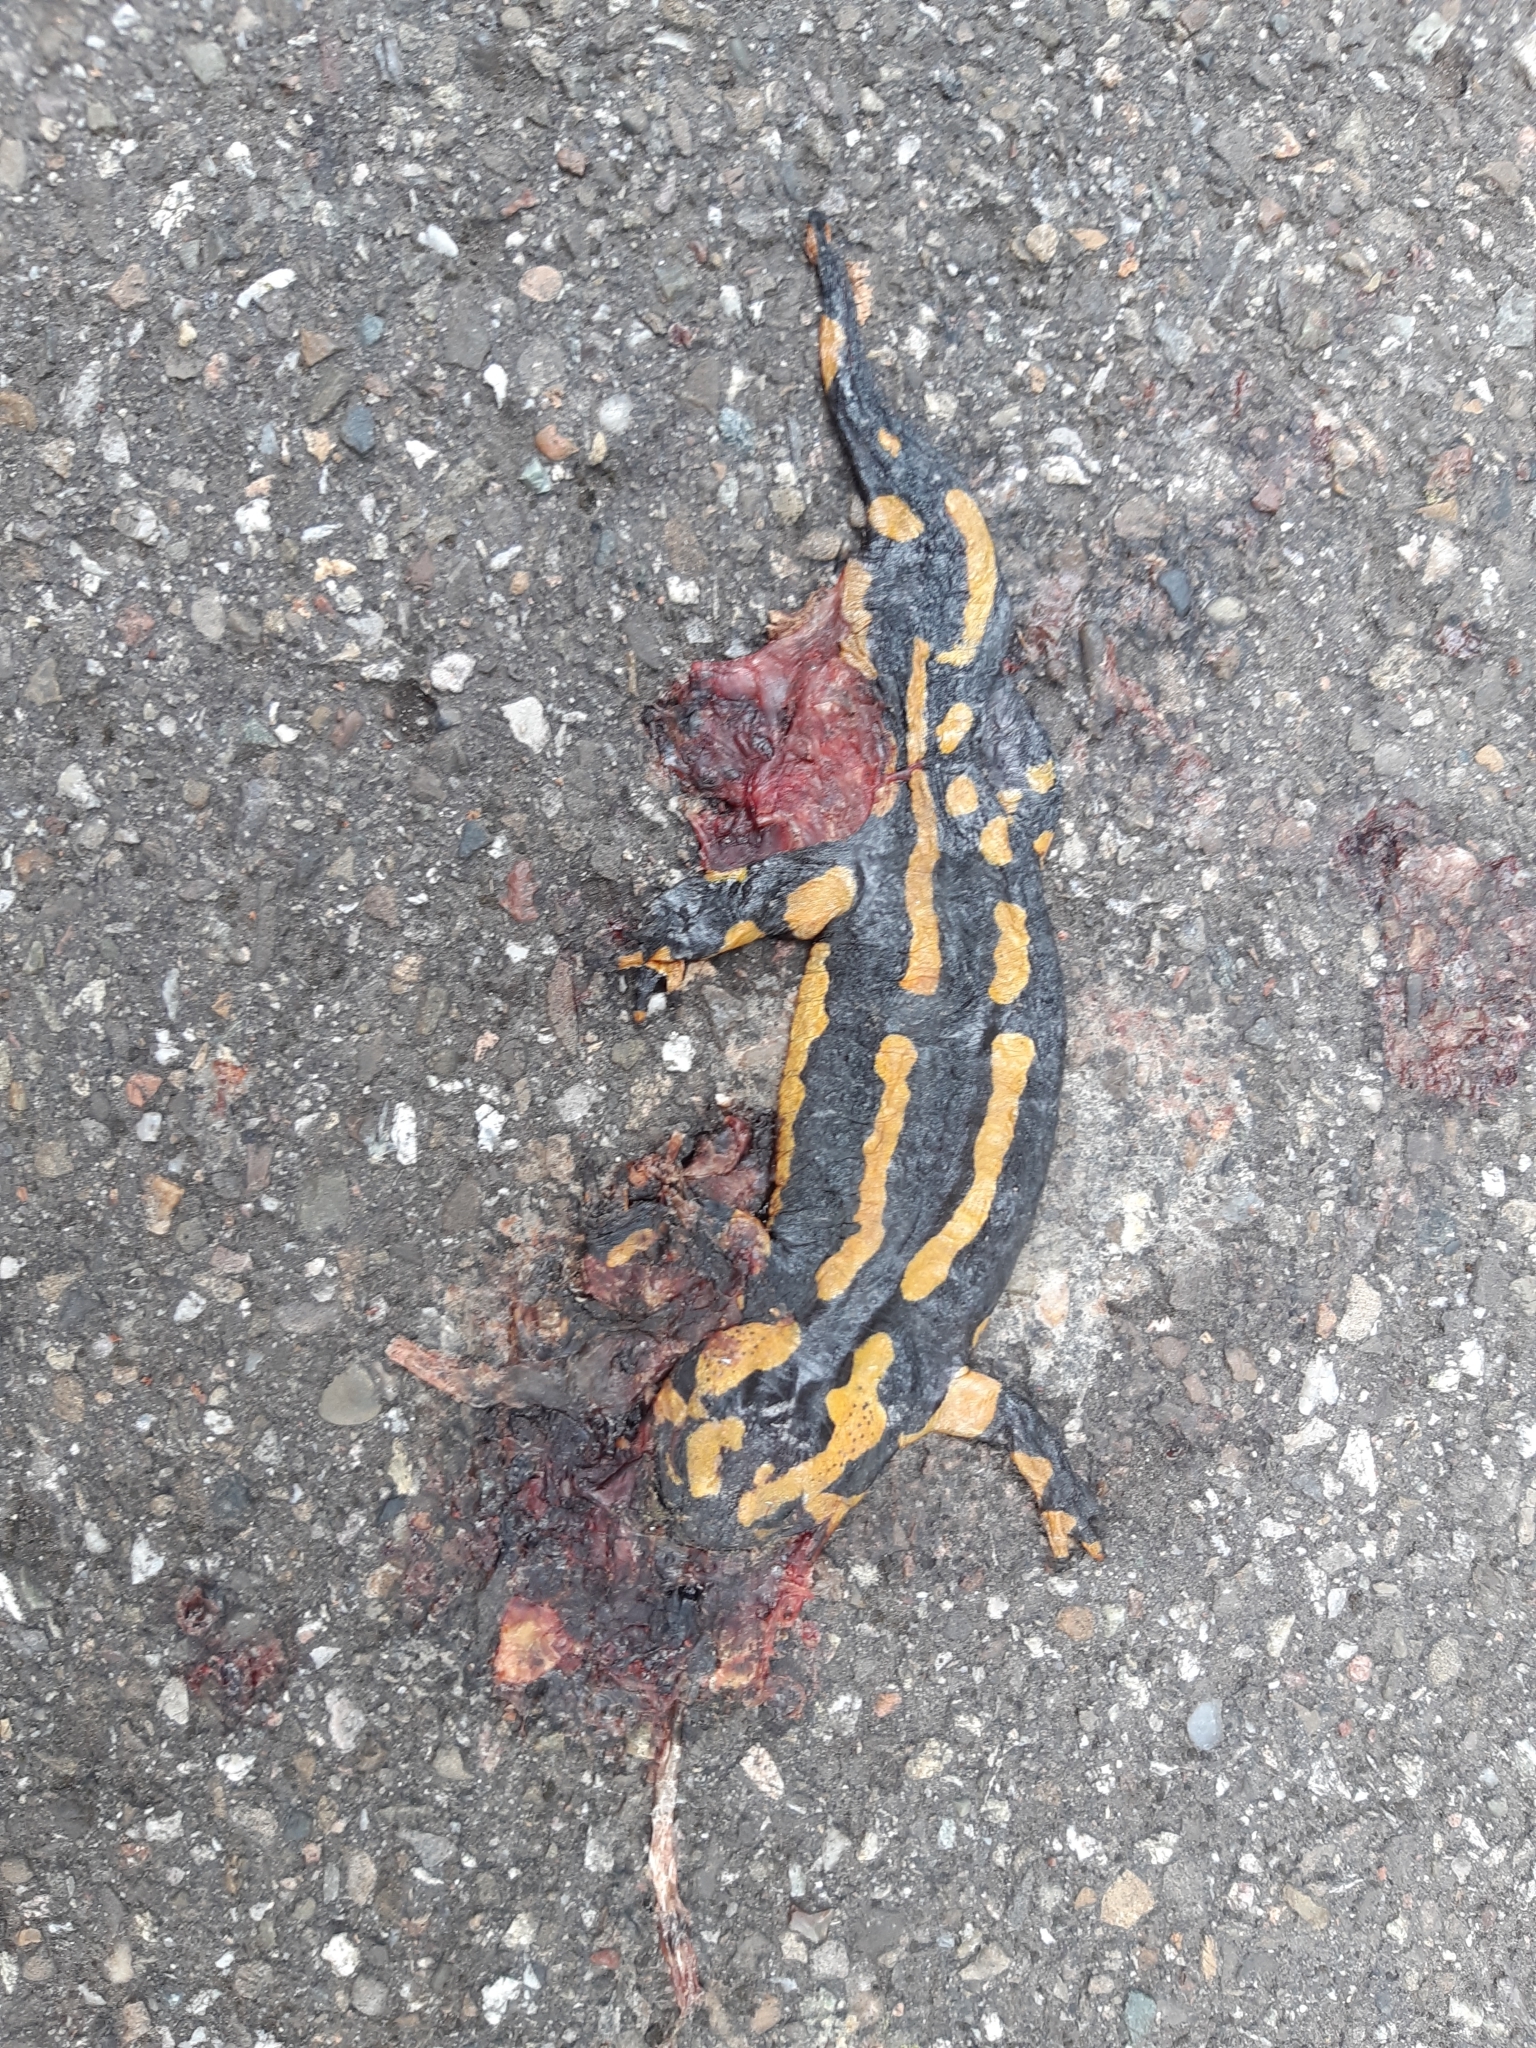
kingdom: Animalia
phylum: Chordata
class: Amphibia
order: Caudata
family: Salamandridae
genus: Salamandra
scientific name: Salamandra salamandra
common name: Fire salamander
